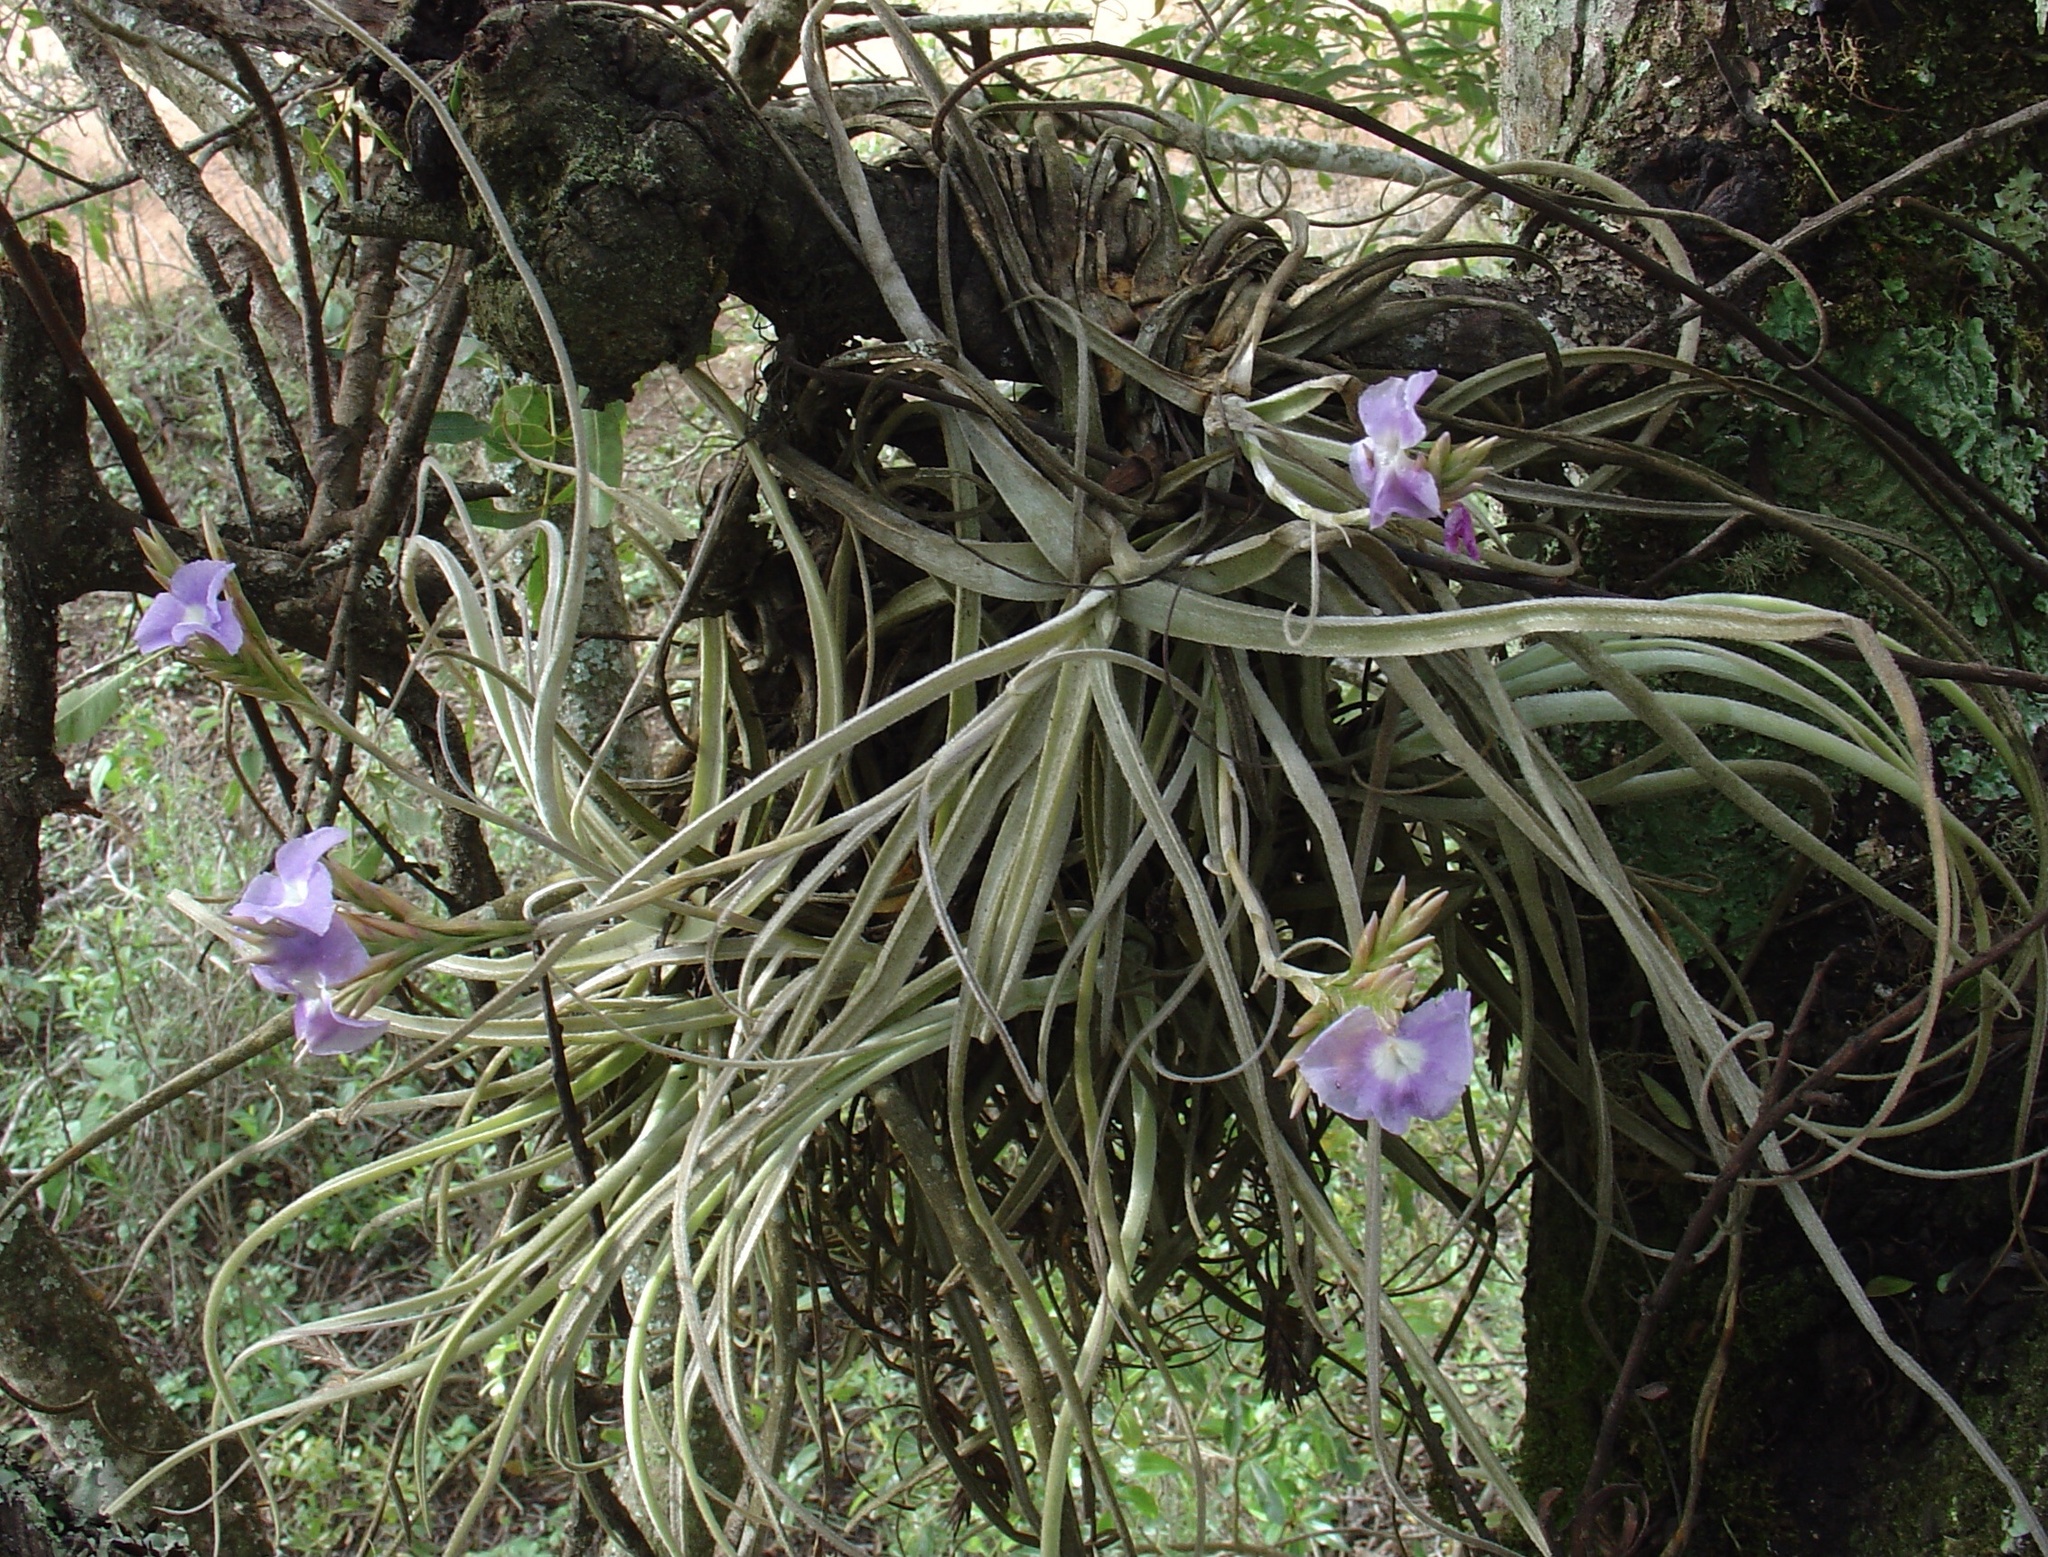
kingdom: Plantae
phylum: Tracheophyta
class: Liliopsida
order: Poales
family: Bromeliaceae
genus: Tillandsia
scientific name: Tillandsia streptocarpa
